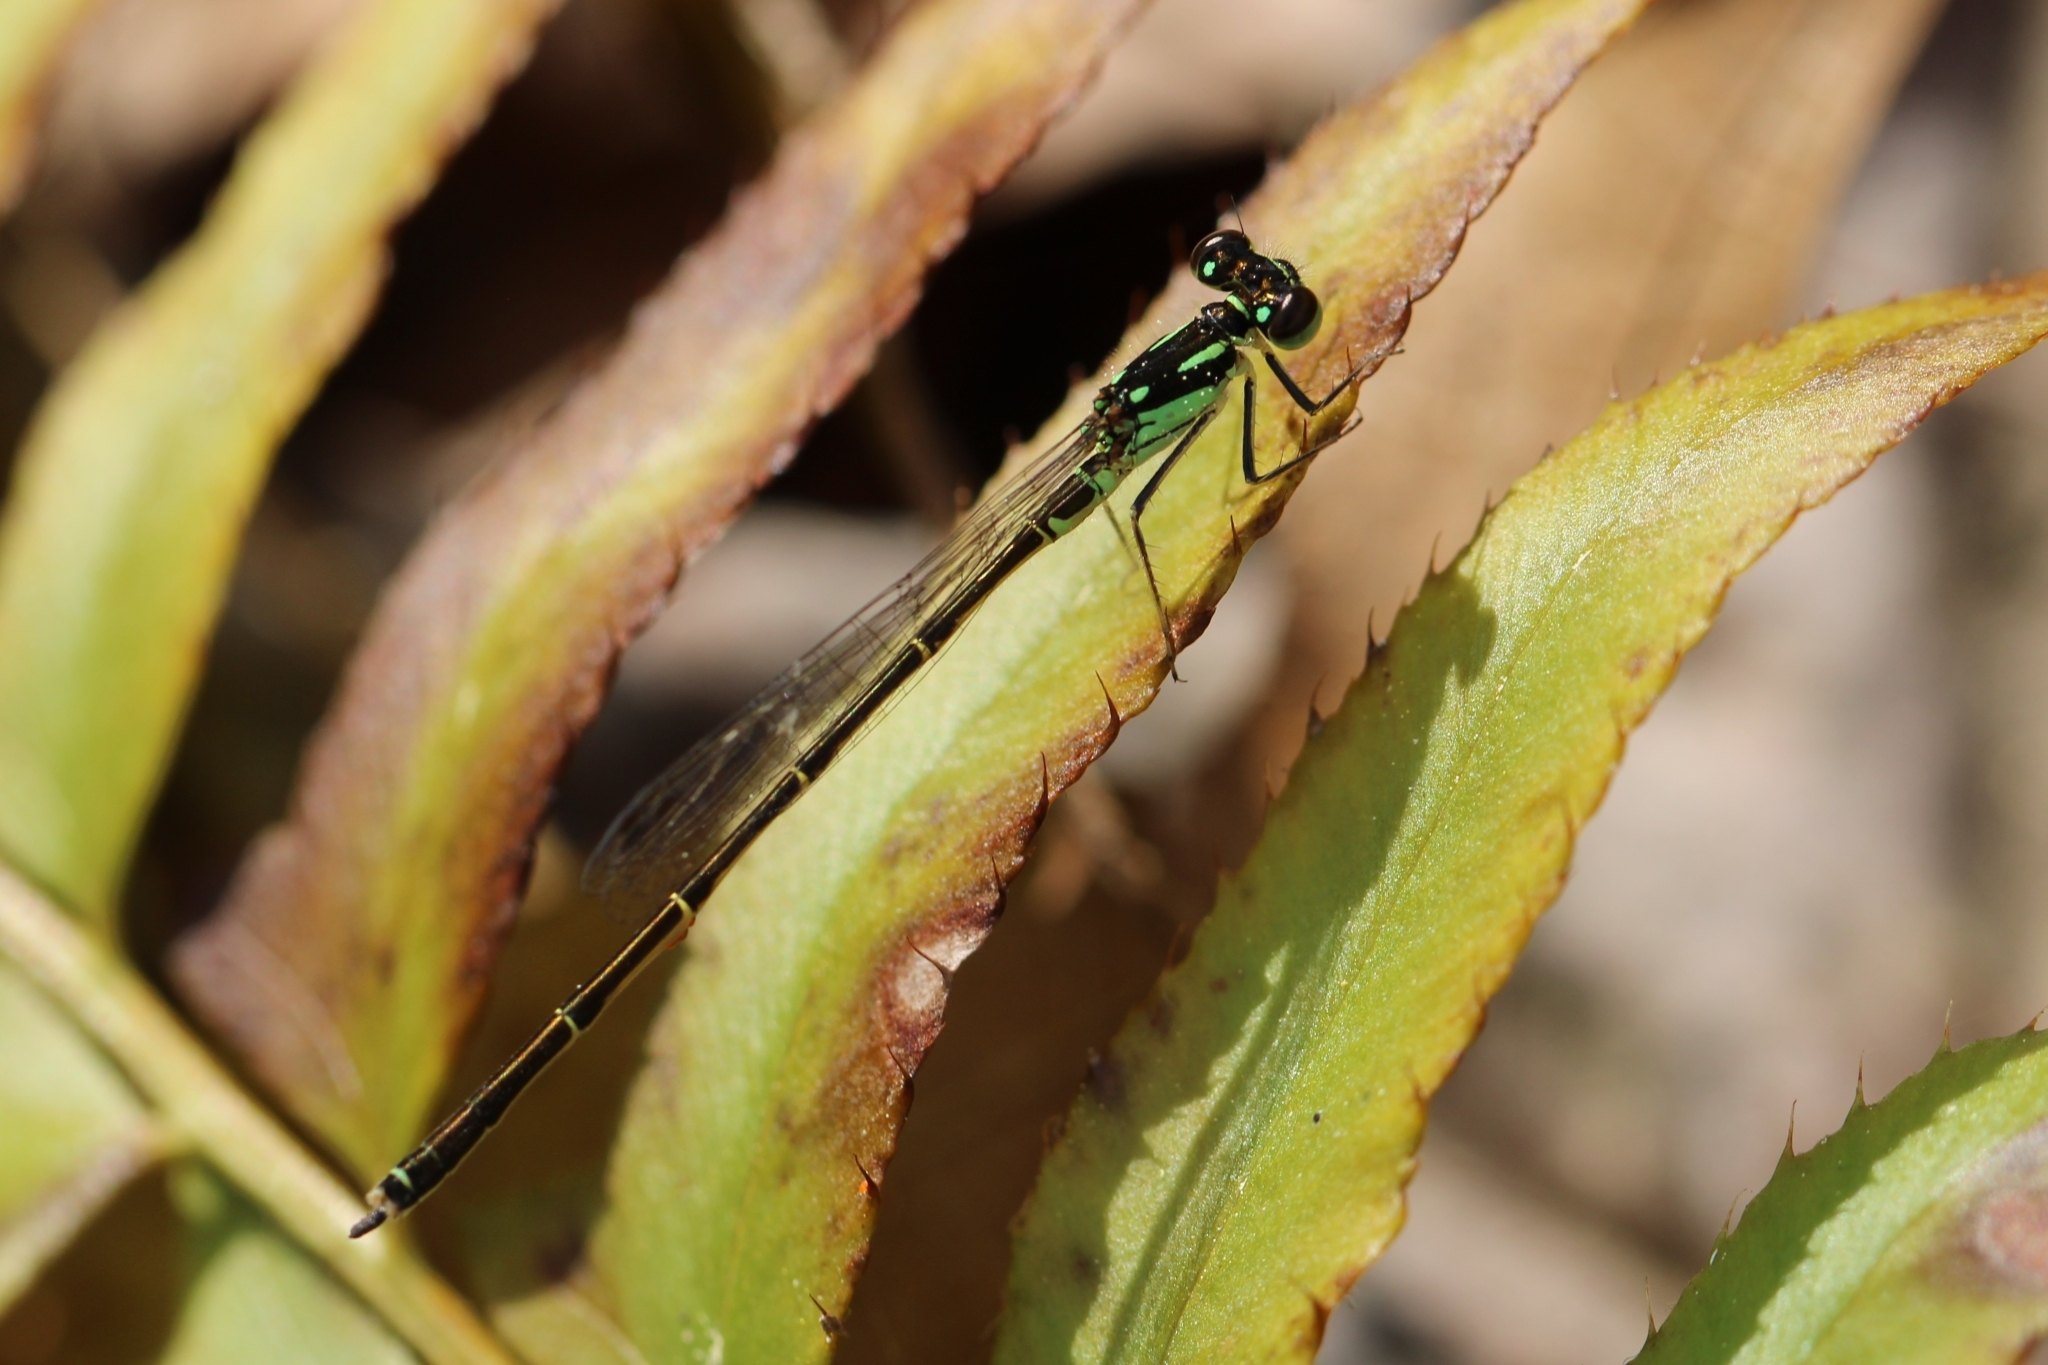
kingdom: Animalia
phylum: Arthropoda
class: Insecta
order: Odonata
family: Coenagrionidae
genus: Ischnura
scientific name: Ischnura posita
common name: Fragile forktail
